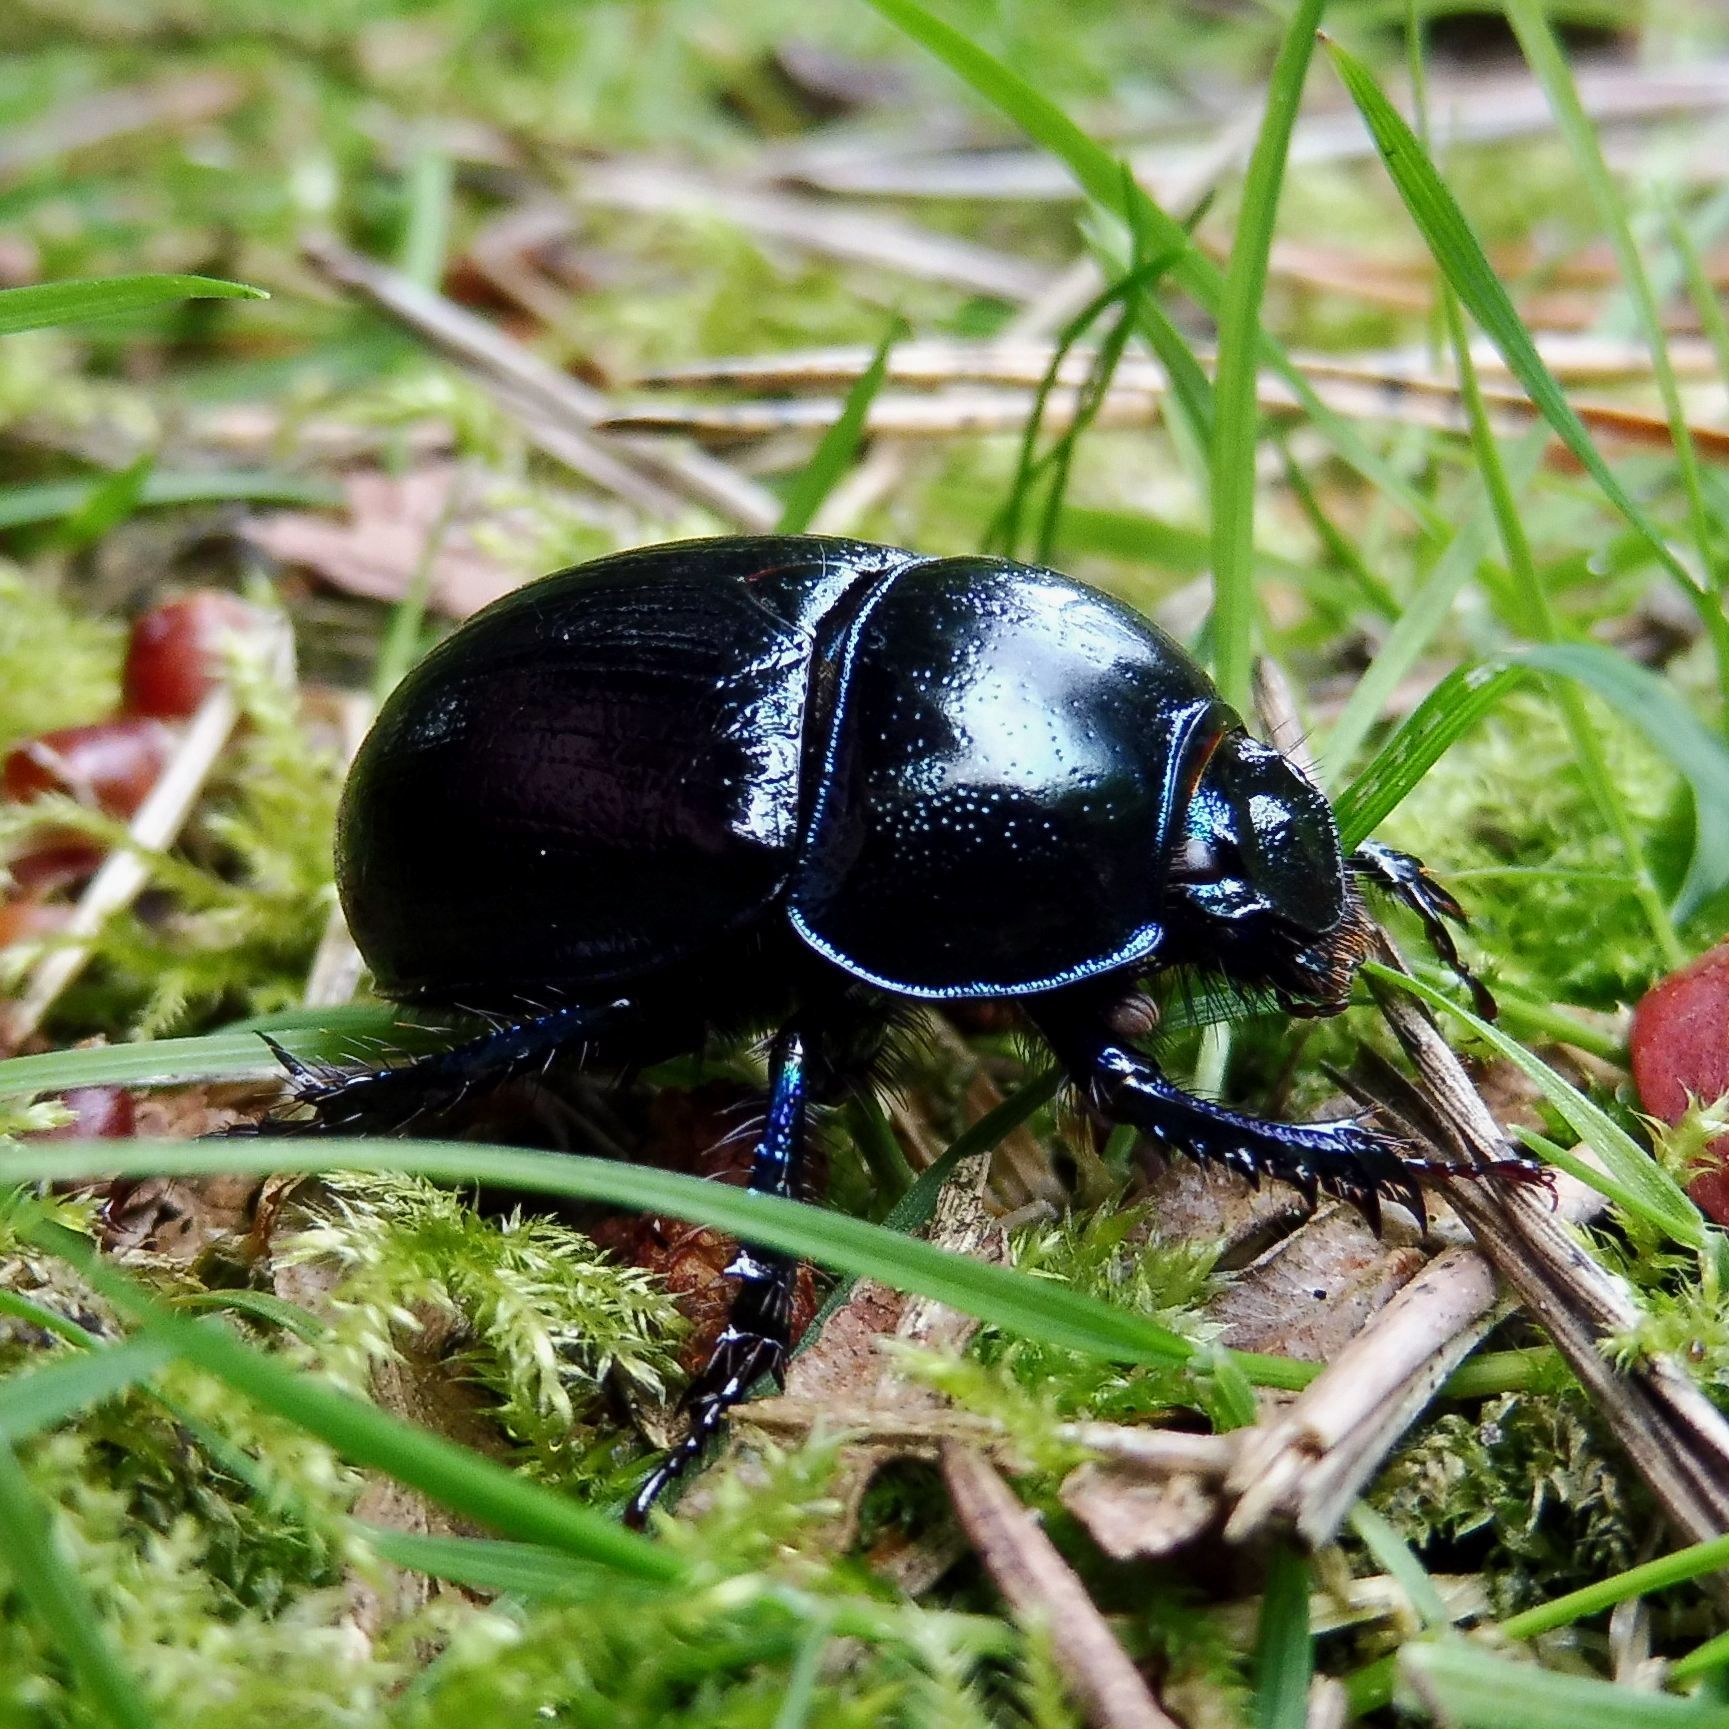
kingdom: Animalia
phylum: Arthropoda
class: Insecta
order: Coleoptera
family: Geotrupidae
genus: Anoplotrupes
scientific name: Anoplotrupes stercorosus
